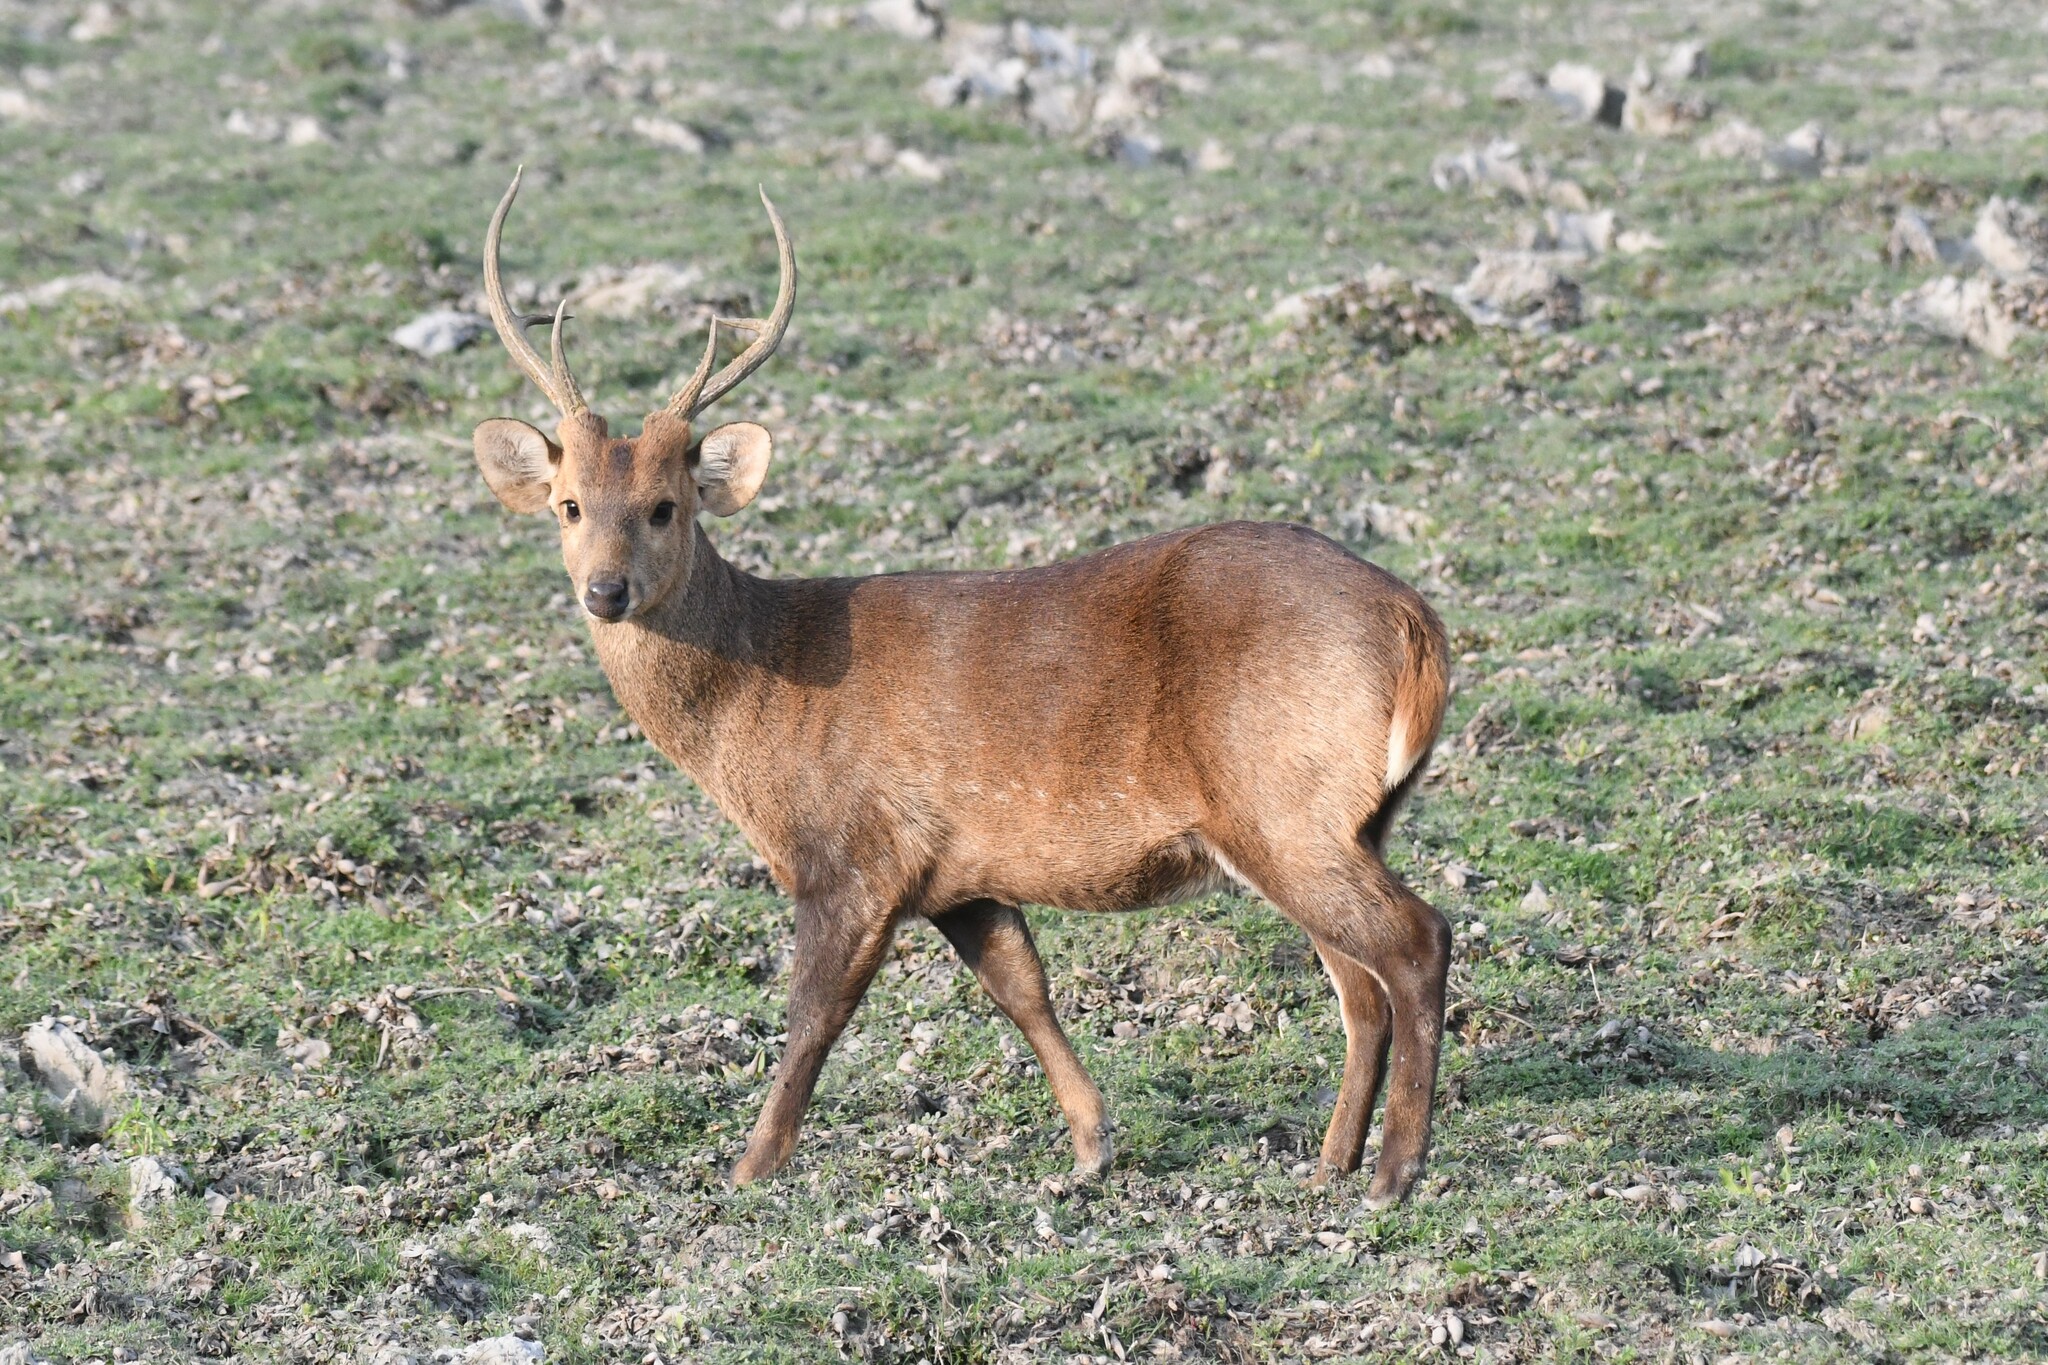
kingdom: Animalia
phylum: Chordata
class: Mammalia
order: Artiodactyla
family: Cervidae
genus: Axis
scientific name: Axis porcinus
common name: Hog deer
